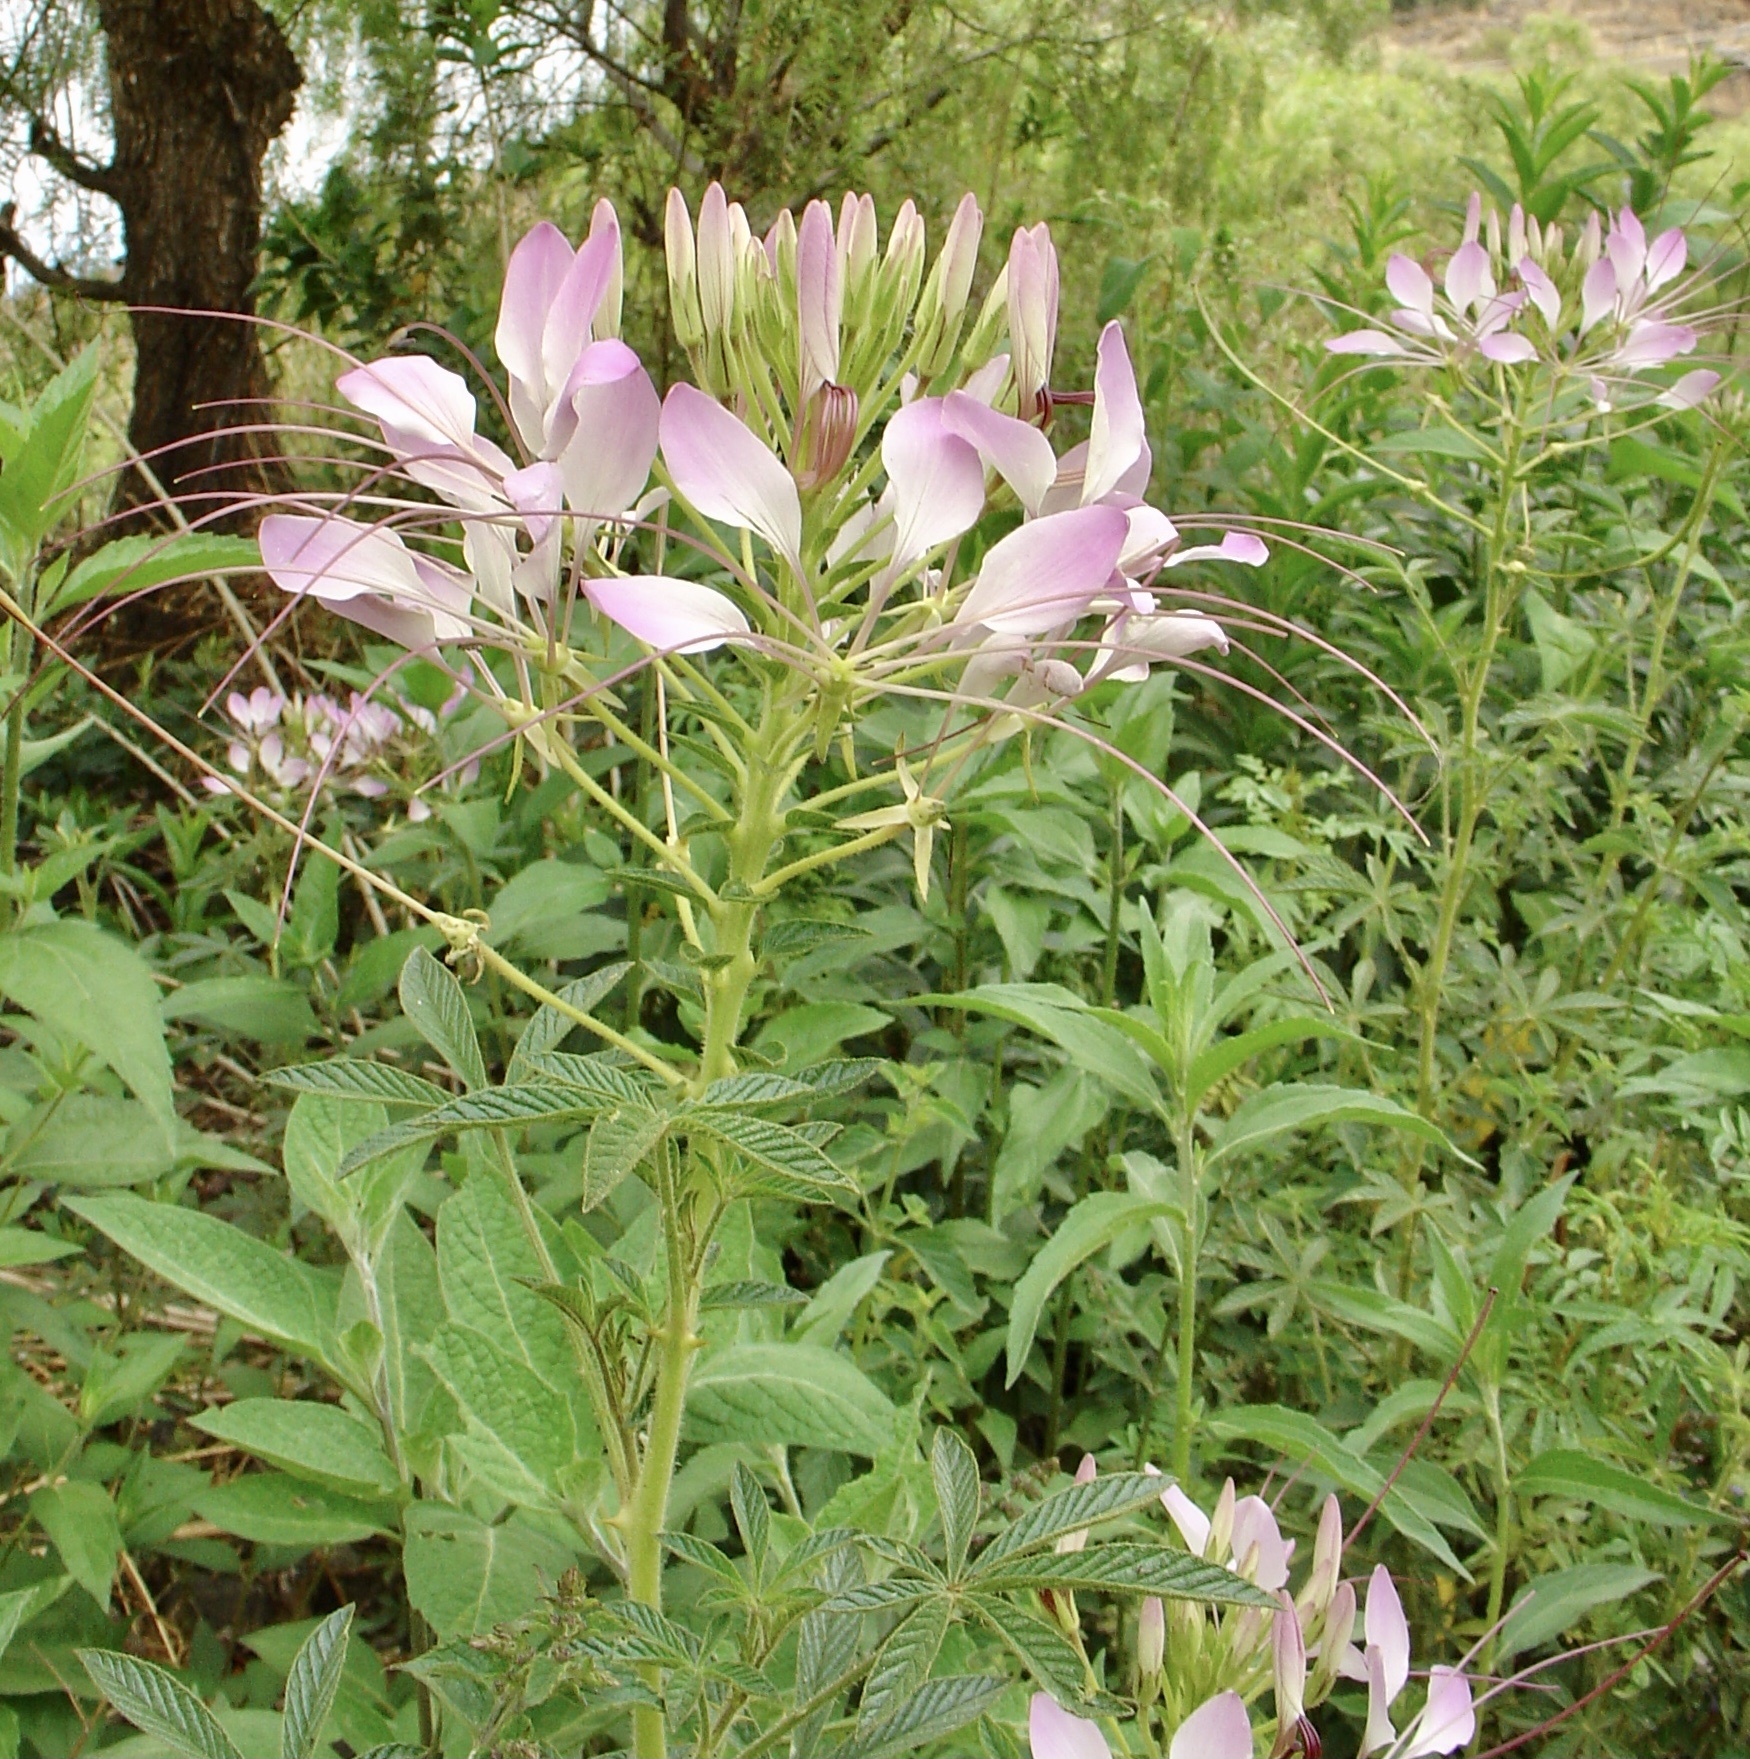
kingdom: Plantae
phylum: Tracheophyta
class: Magnoliopsida
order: Brassicales
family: Cleomaceae
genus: Tarenaya
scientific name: Tarenaya boliviensis
